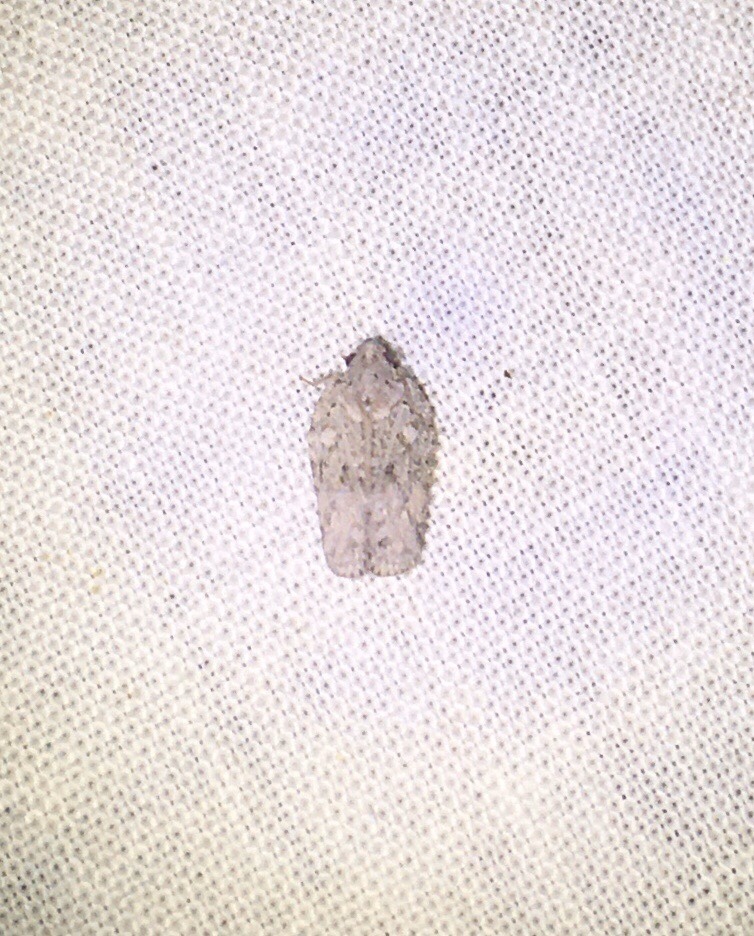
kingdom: Animalia
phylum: Arthropoda
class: Insecta
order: Hemiptera
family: Flatidae
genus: Flatoidinus
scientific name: Flatoidinus punctatus
